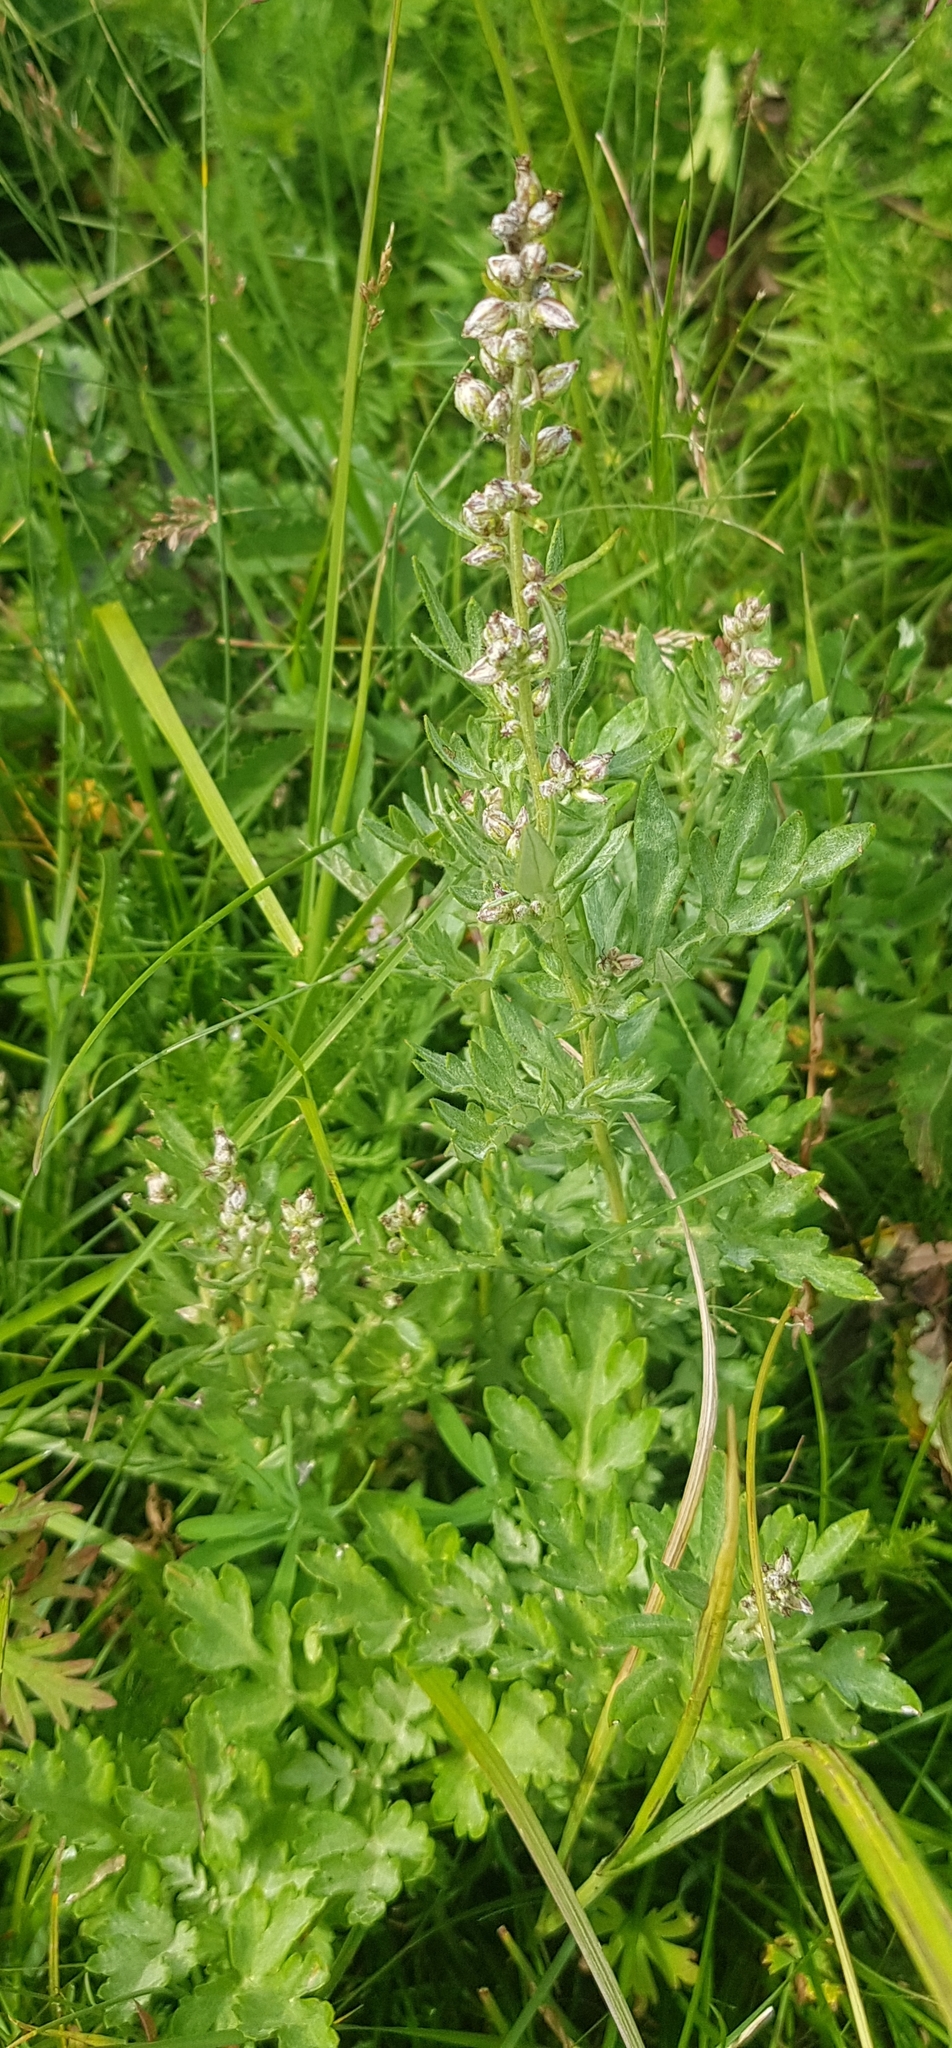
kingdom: Plantae
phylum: Tracheophyta
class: Magnoliopsida
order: Asterales
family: Asteraceae
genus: Artemisia
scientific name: Artemisia absinthium
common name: Wormwood
